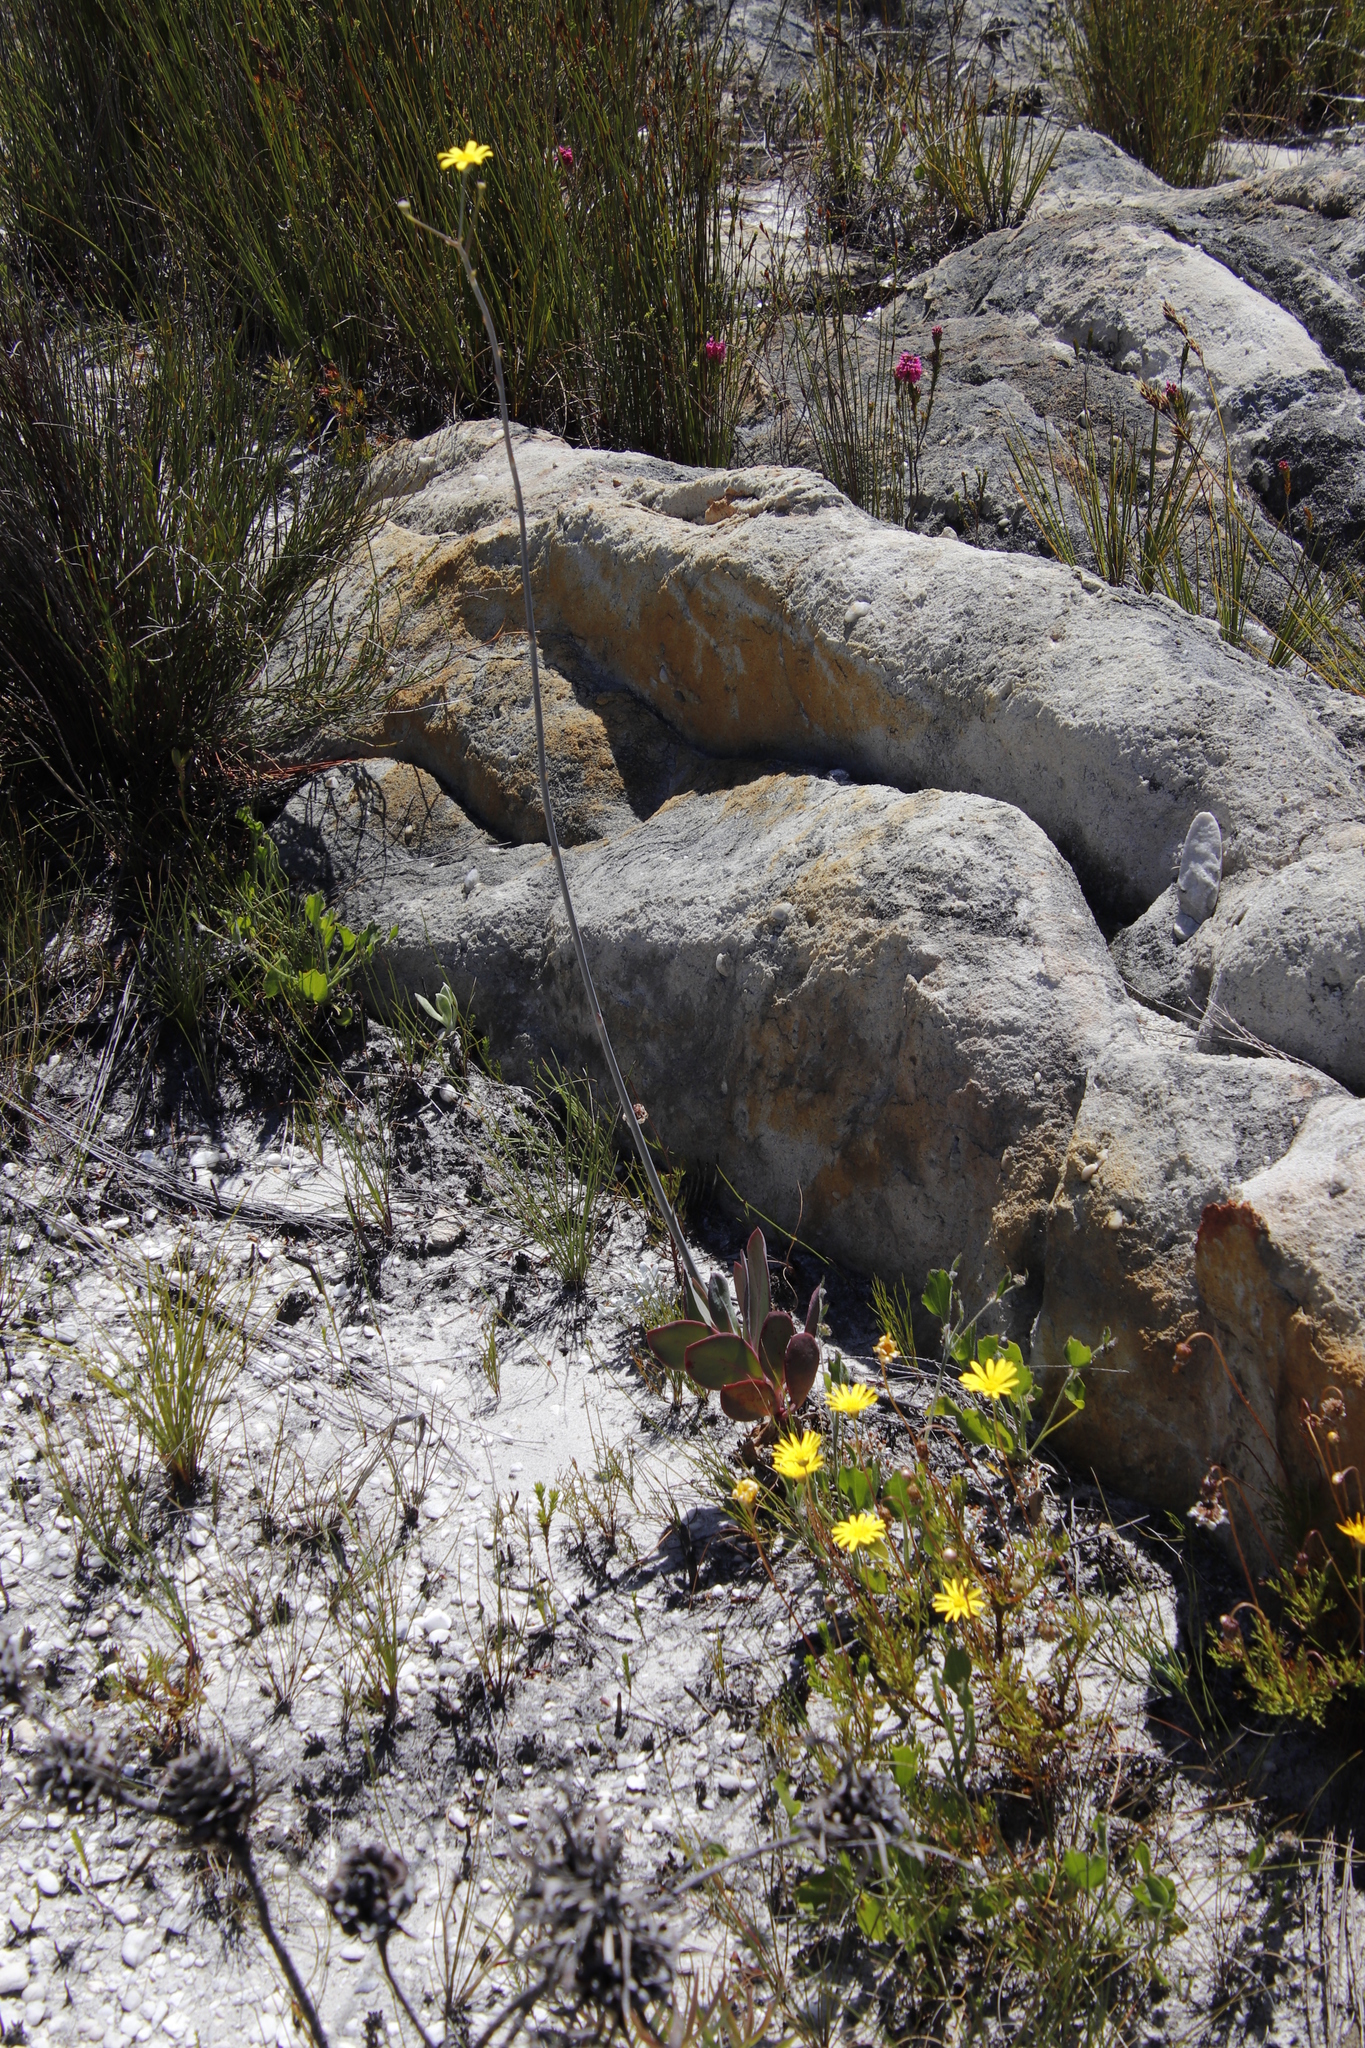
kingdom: Plantae
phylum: Tracheophyta
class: Magnoliopsida
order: Asterales
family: Asteraceae
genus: Othonna
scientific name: Othonna quinquedentata
